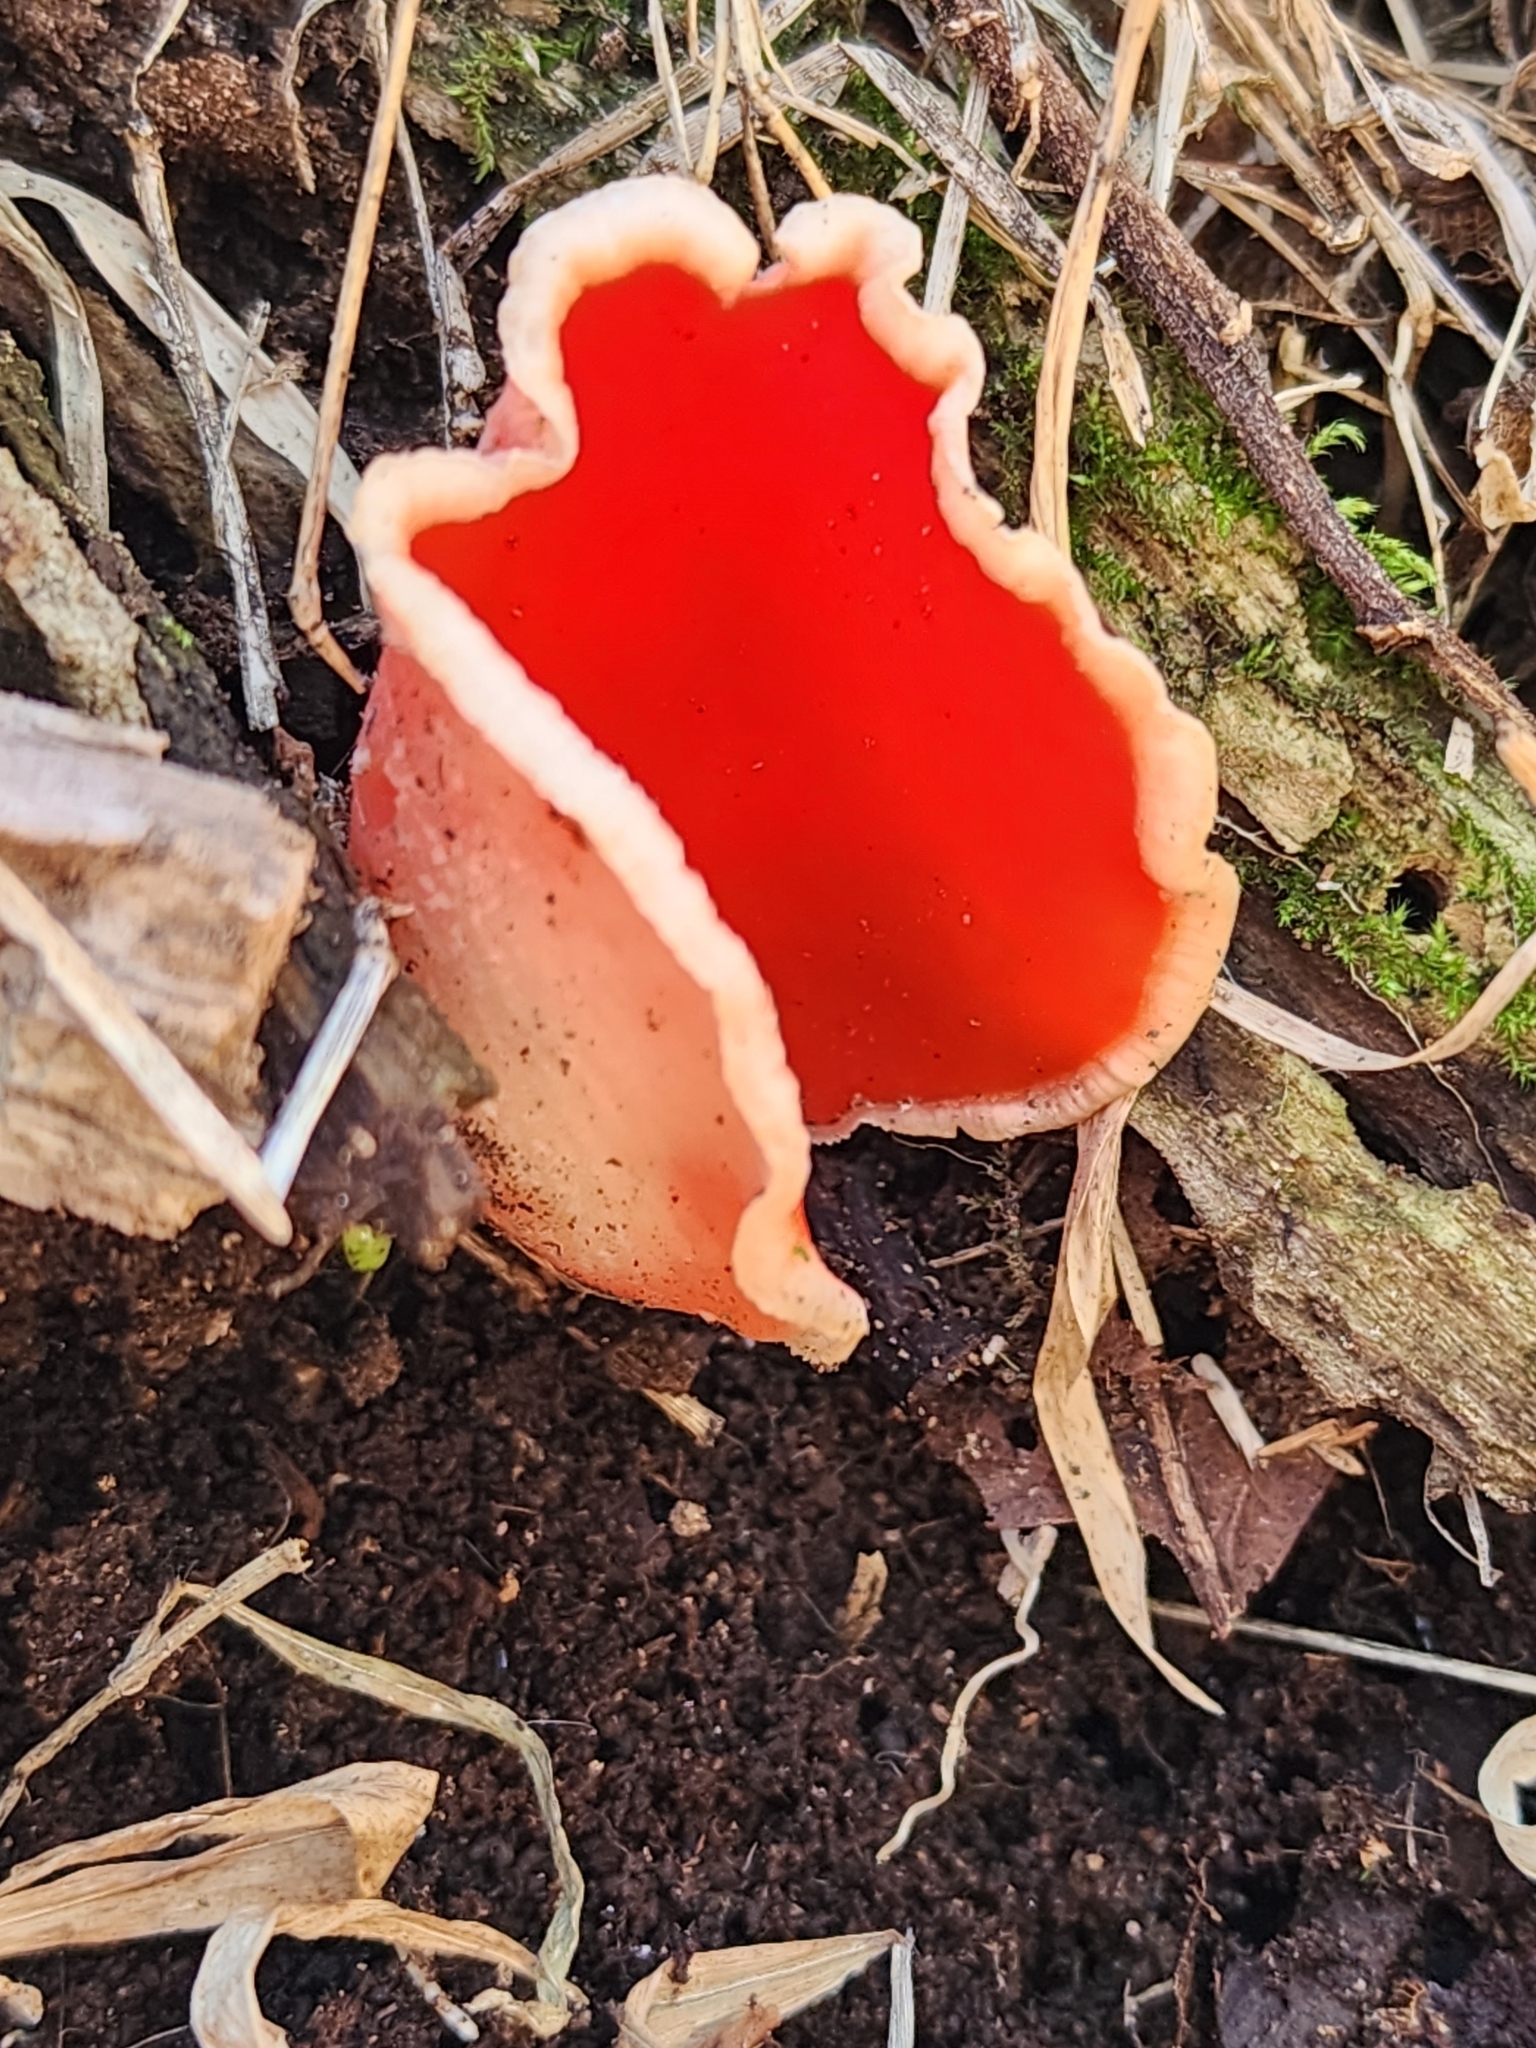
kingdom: Fungi
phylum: Ascomycota
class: Pezizomycetes
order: Pezizales
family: Sarcoscyphaceae
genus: Sarcoscypha
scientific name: Sarcoscypha austriaca
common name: Scarlet elfcup
